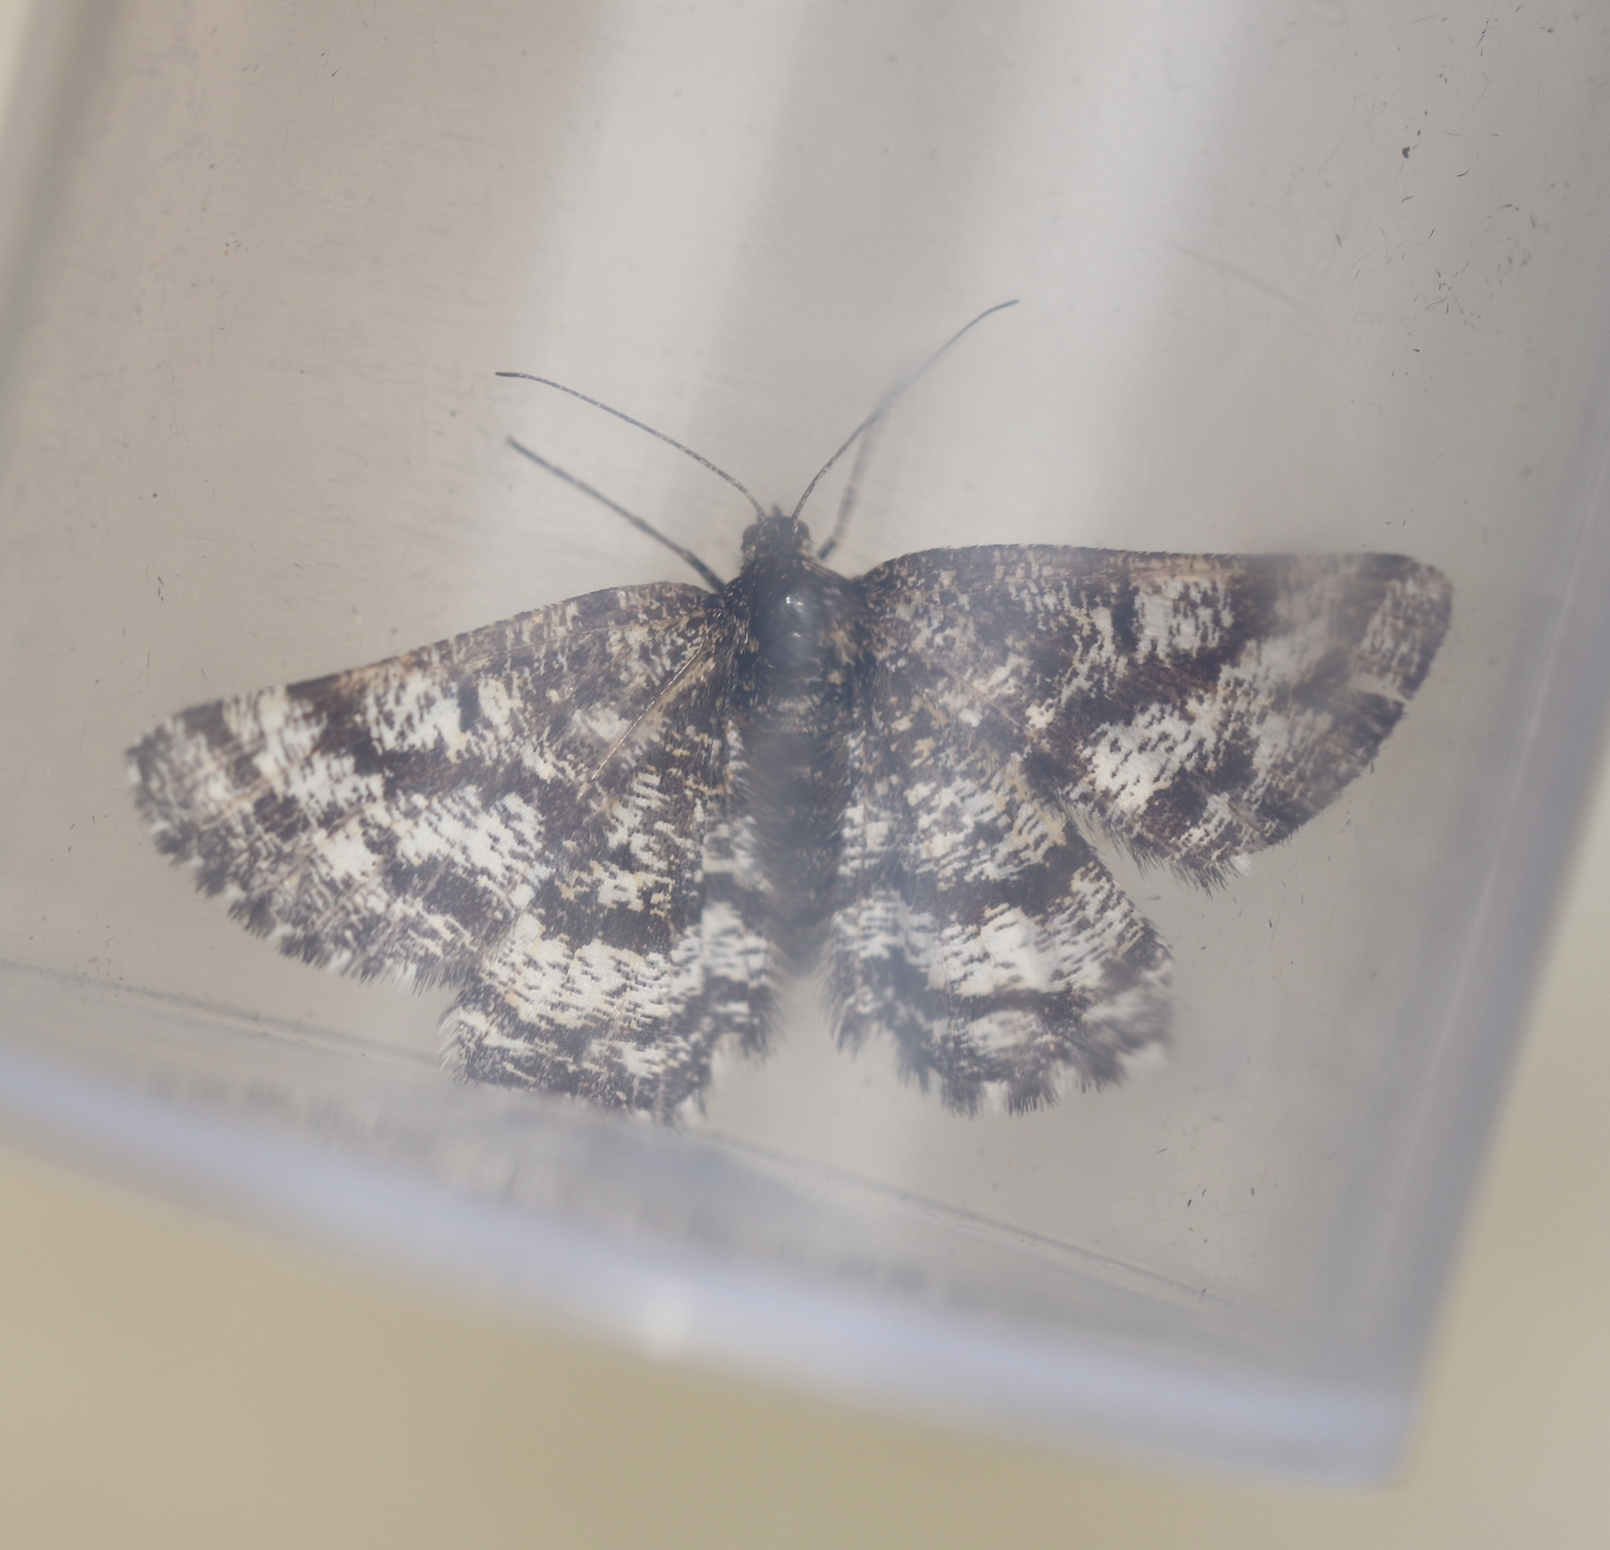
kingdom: Animalia
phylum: Arthropoda
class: Insecta
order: Lepidoptera
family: Geometridae
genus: Ematurga
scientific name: Ematurga atomaria
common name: Common heath
